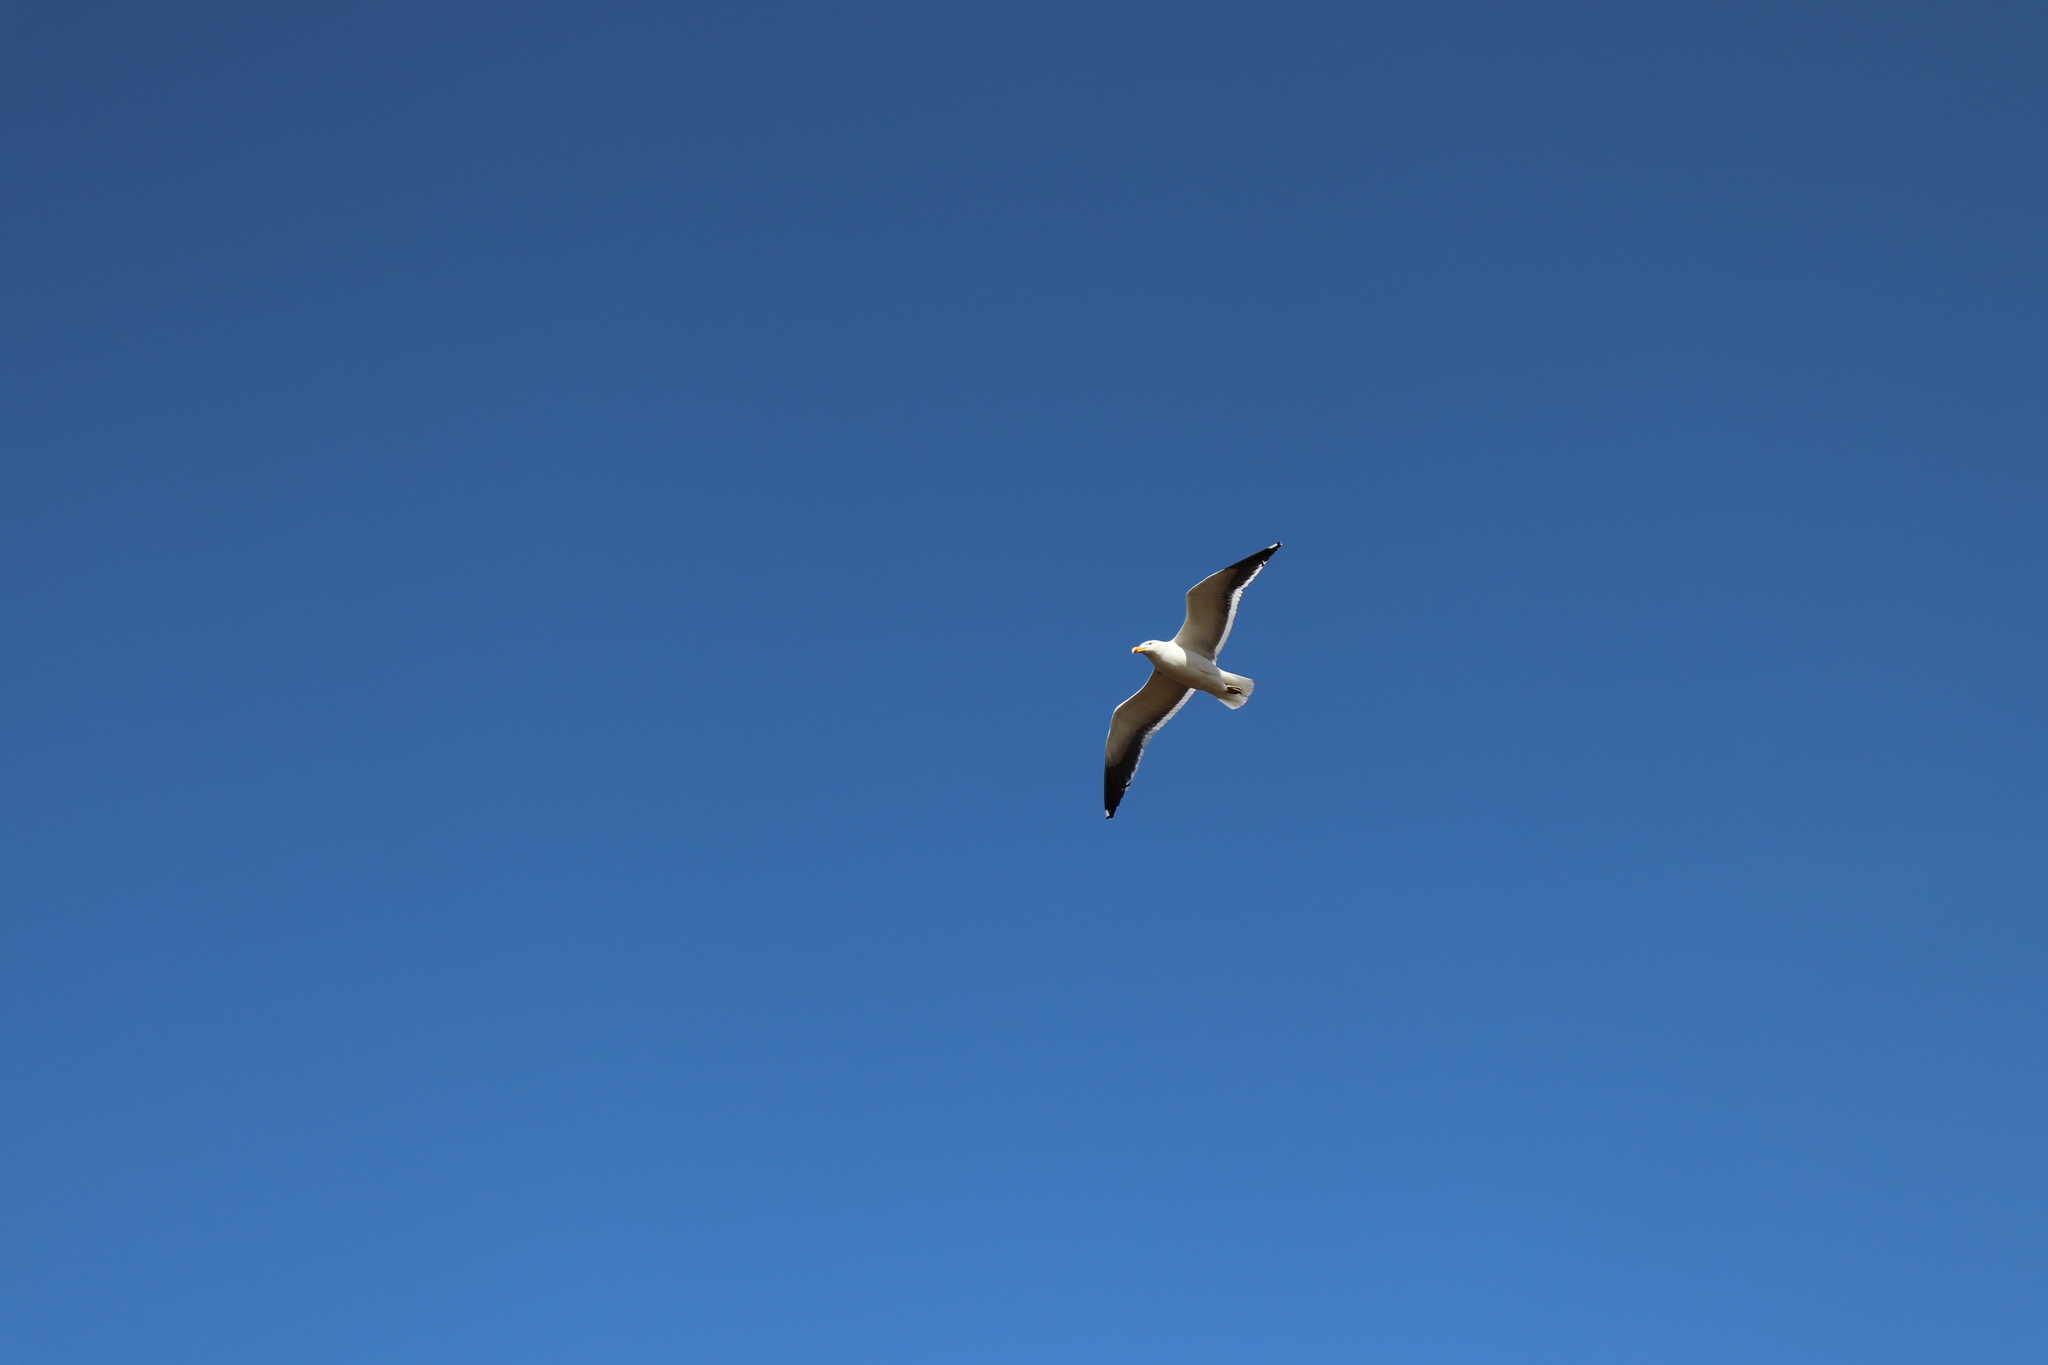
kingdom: Animalia
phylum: Chordata
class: Aves
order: Charadriiformes
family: Laridae
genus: Larus
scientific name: Larus dominicanus
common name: Kelp gull
